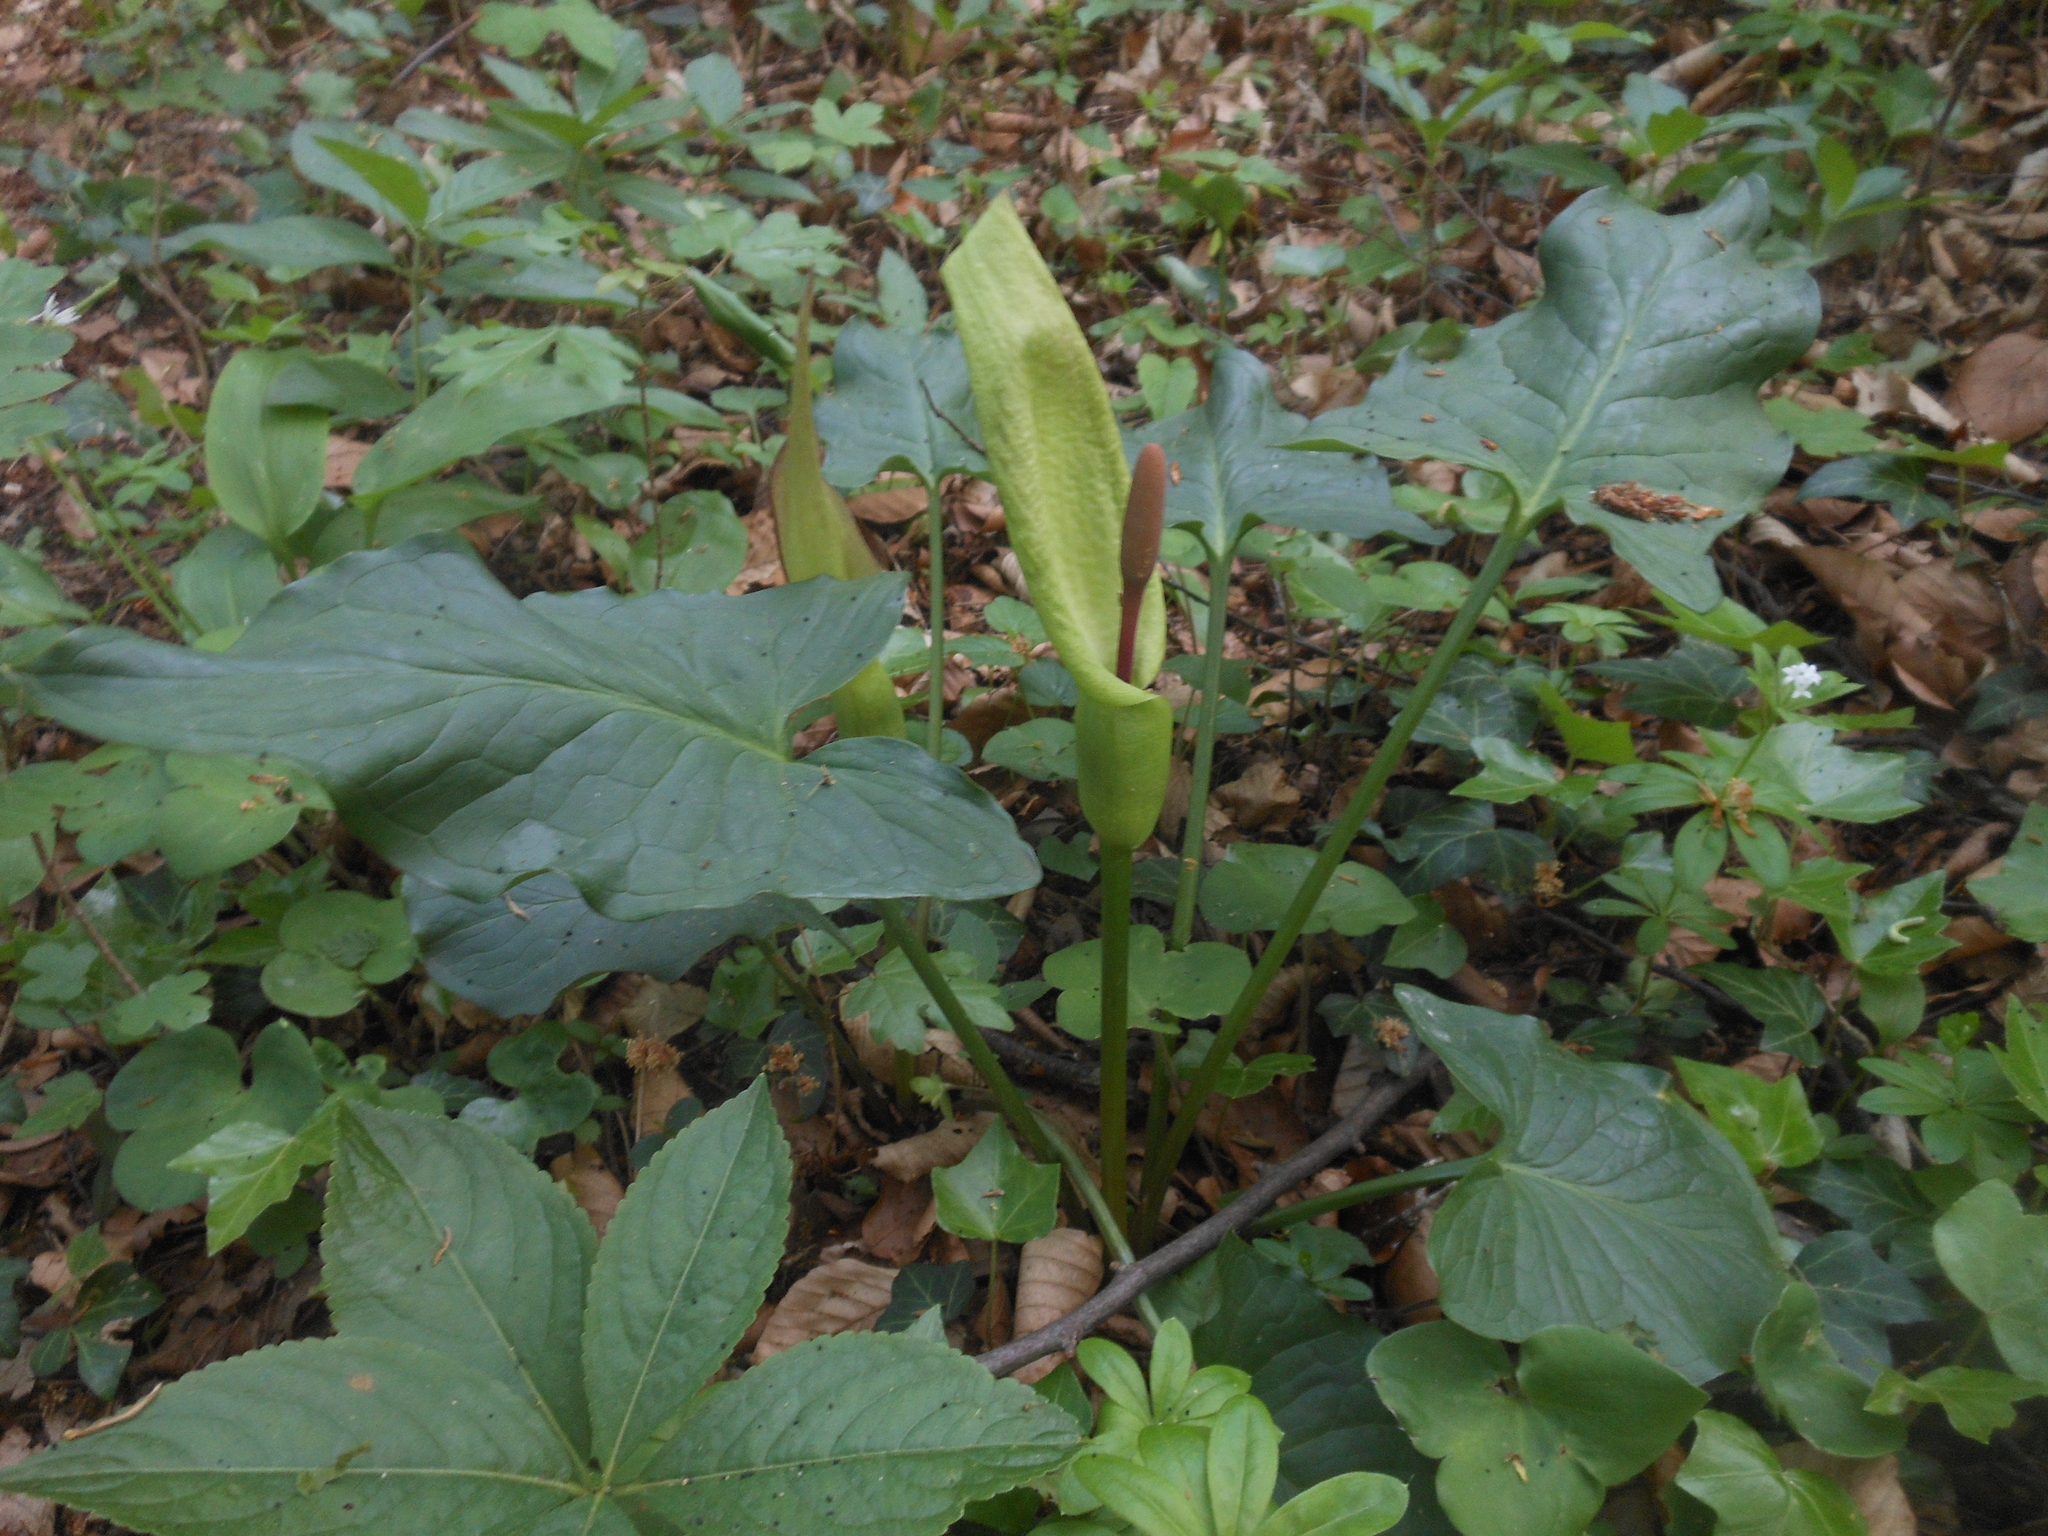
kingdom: Plantae
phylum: Tracheophyta
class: Liliopsida
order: Alismatales
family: Araceae
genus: Arum
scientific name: Arum cylindraceum
